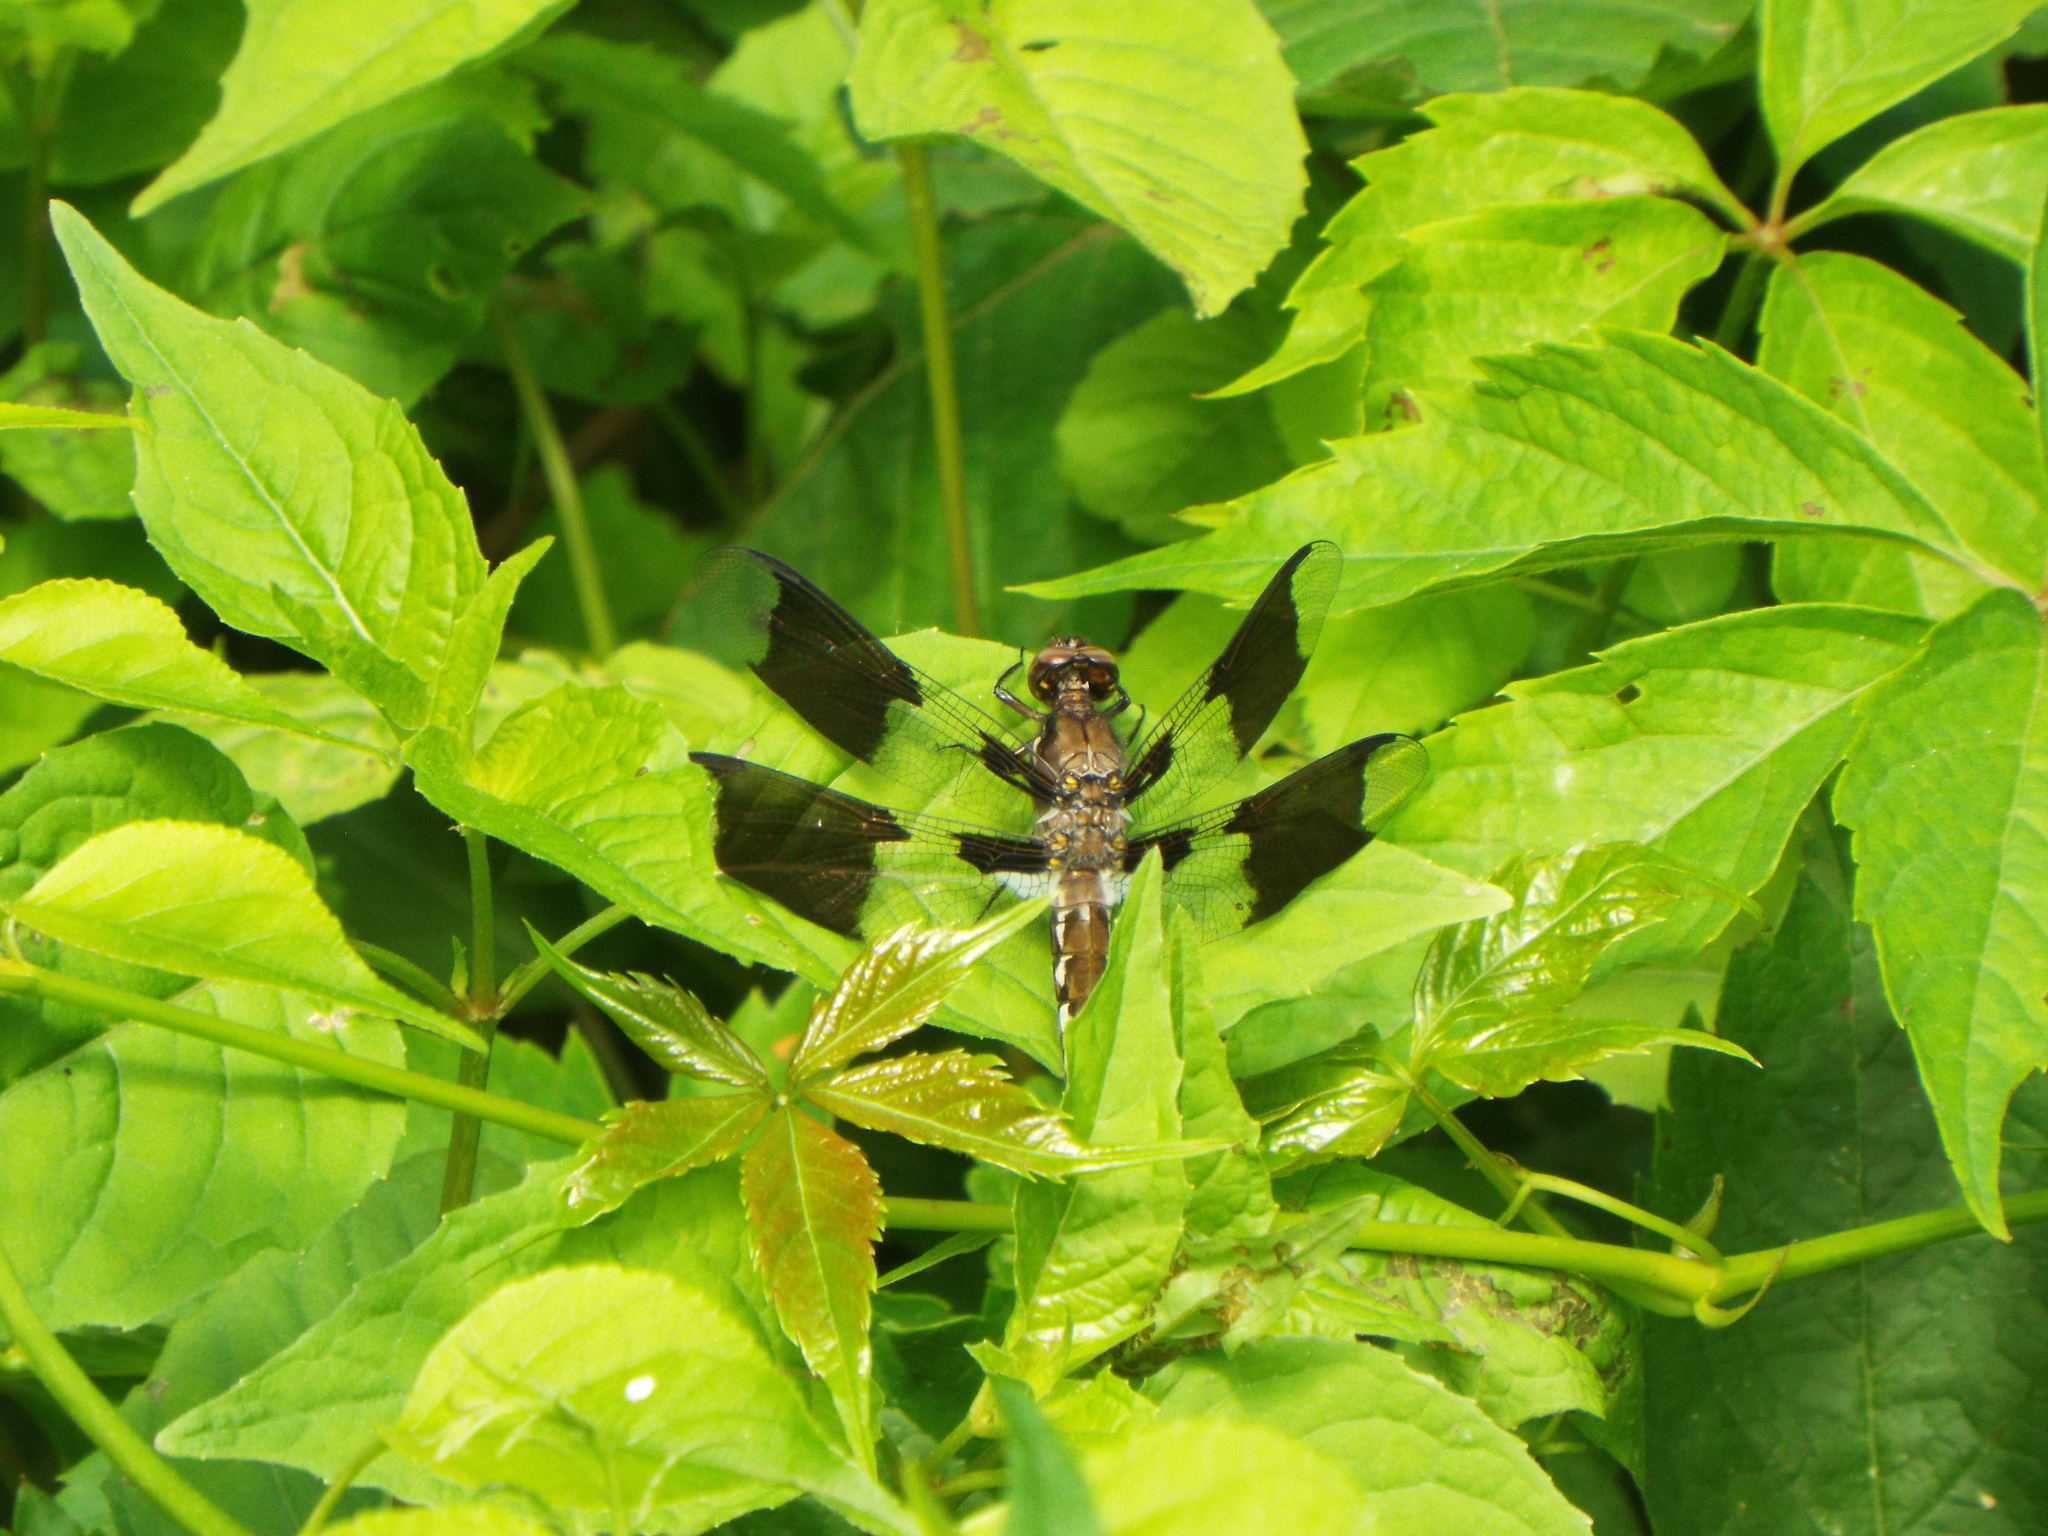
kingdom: Animalia
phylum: Arthropoda
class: Insecta
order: Odonata
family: Libellulidae
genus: Plathemis
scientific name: Plathemis lydia
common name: Common whitetail
